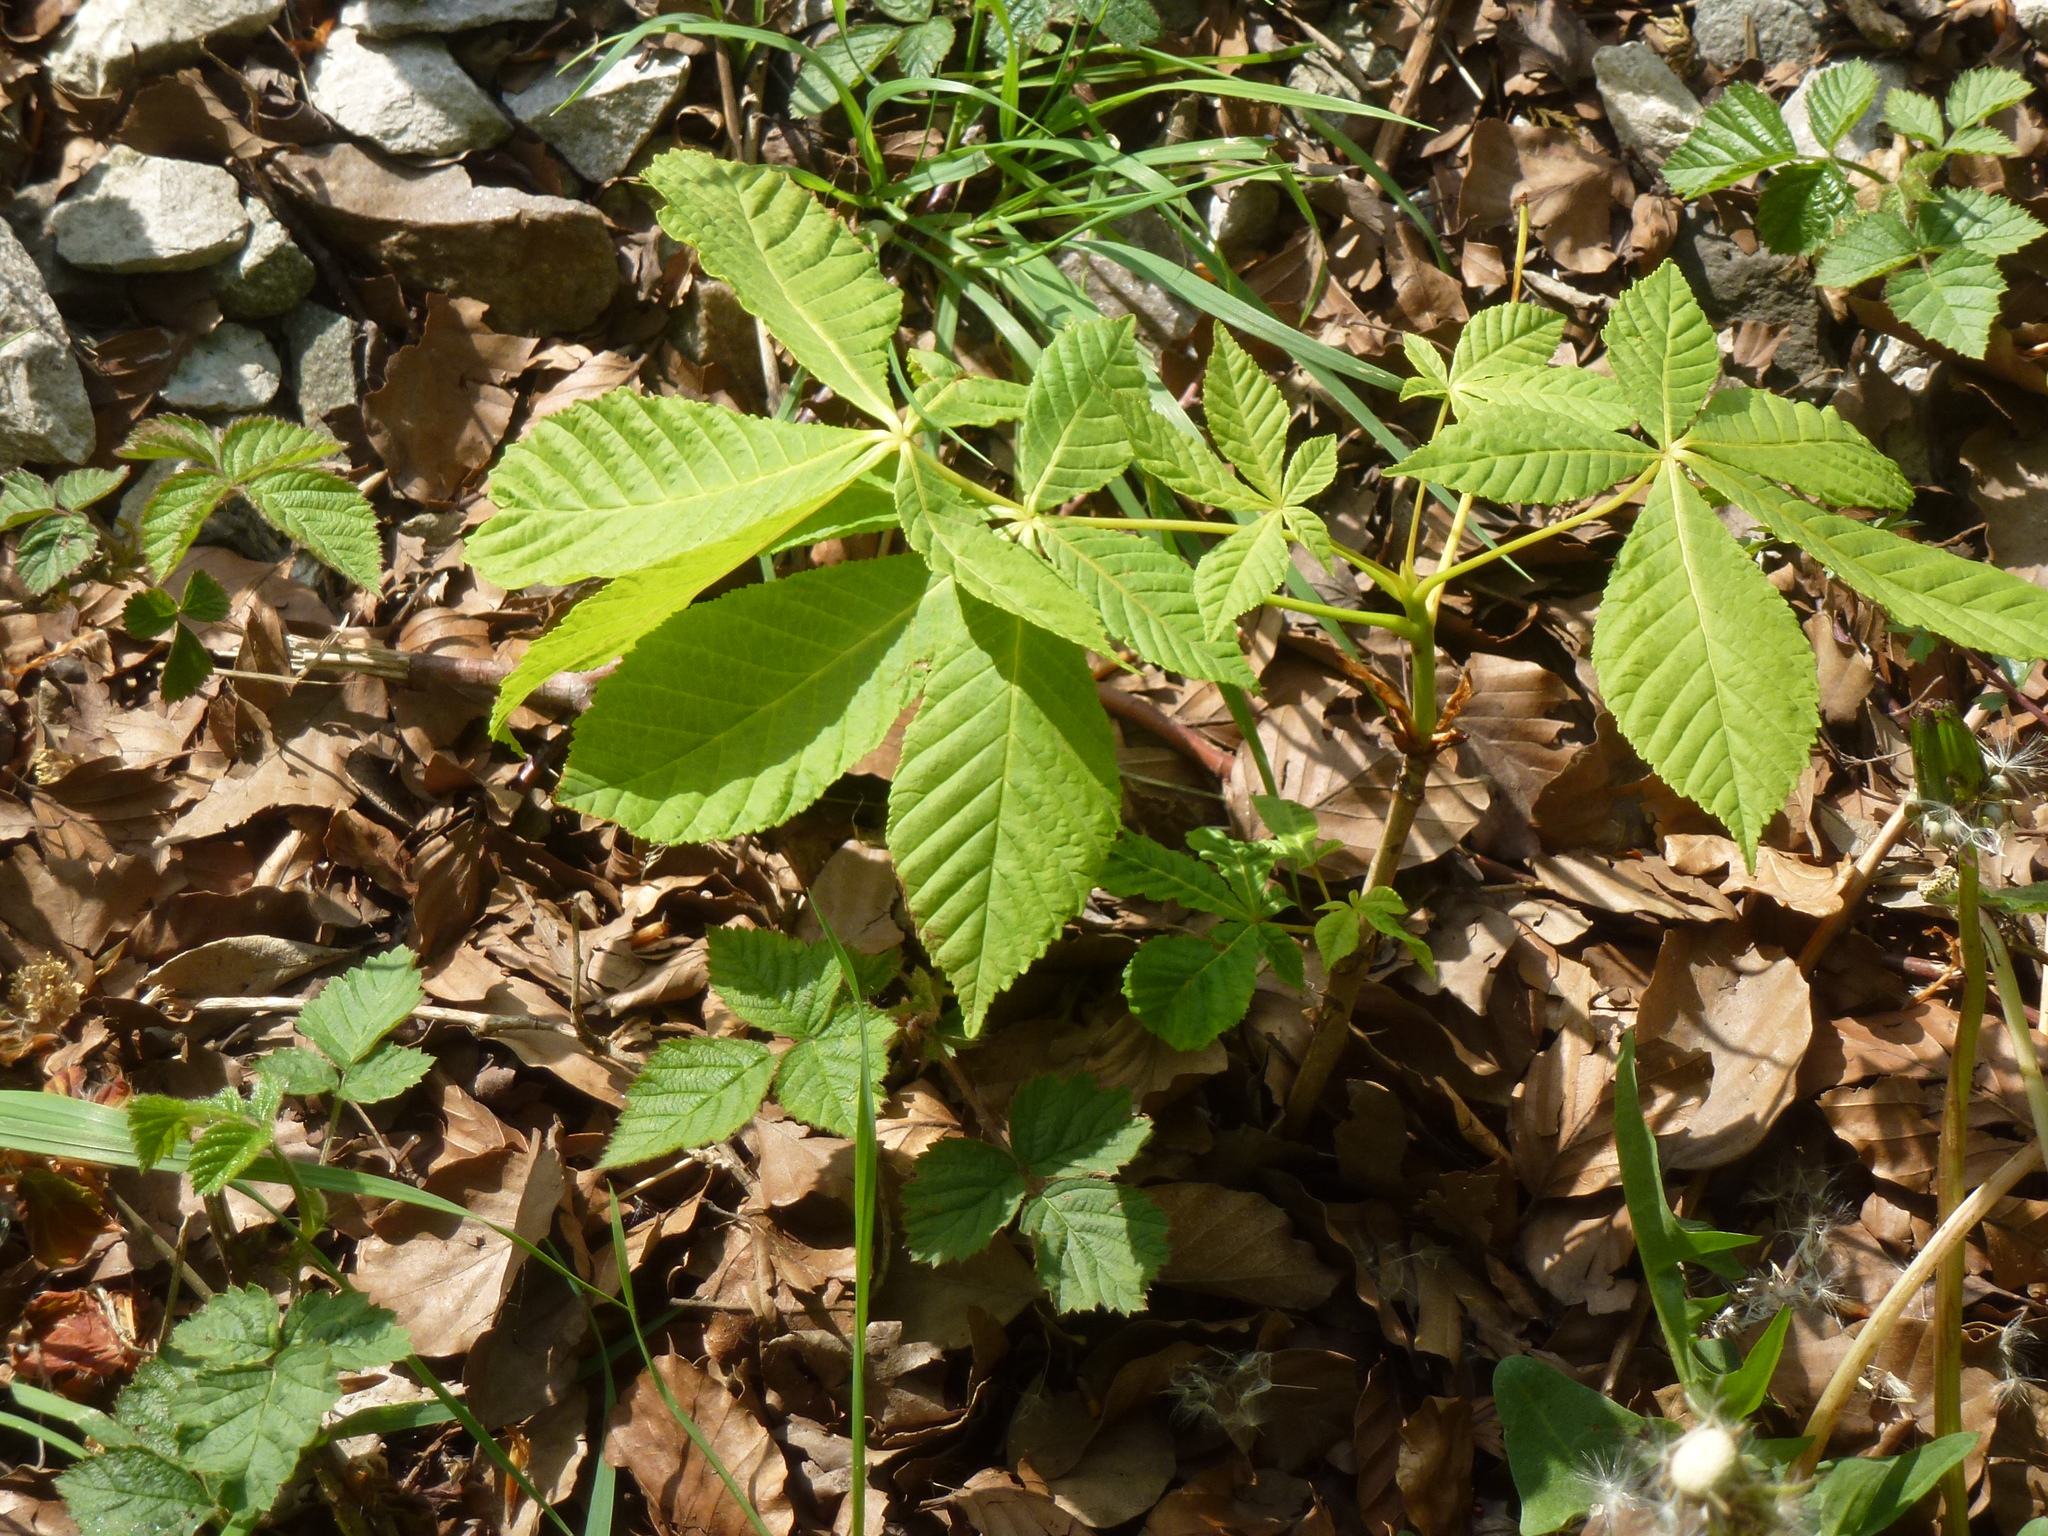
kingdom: Plantae
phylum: Tracheophyta
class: Magnoliopsida
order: Sapindales
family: Sapindaceae
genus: Aesculus
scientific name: Aesculus hippocastanum
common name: Horse-chestnut
